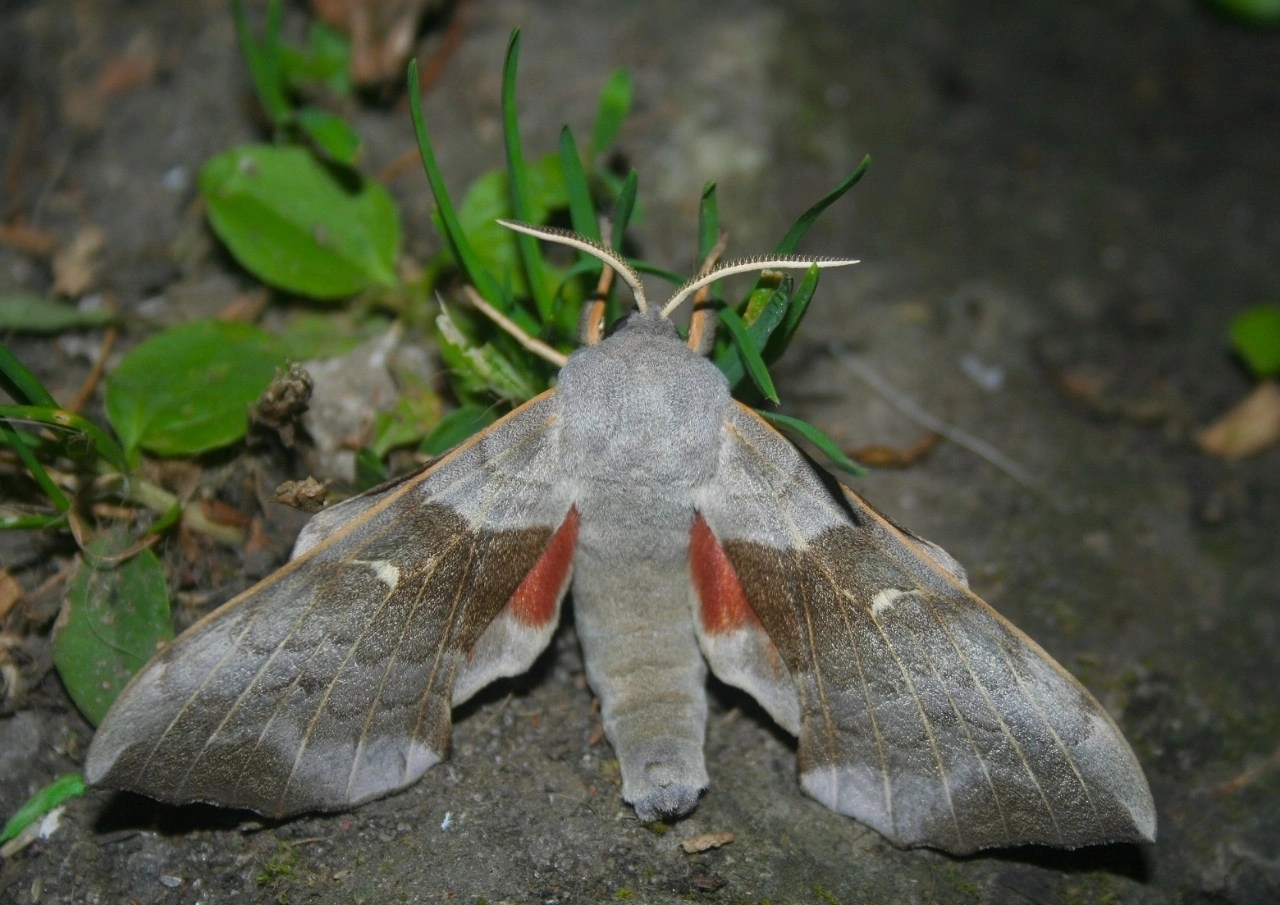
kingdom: Animalia
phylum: Arthropoda
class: Insecta
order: Lepidoptera
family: Sphingidae
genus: Laothoe
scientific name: Laothoe populi
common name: Poplar hawk-moth
